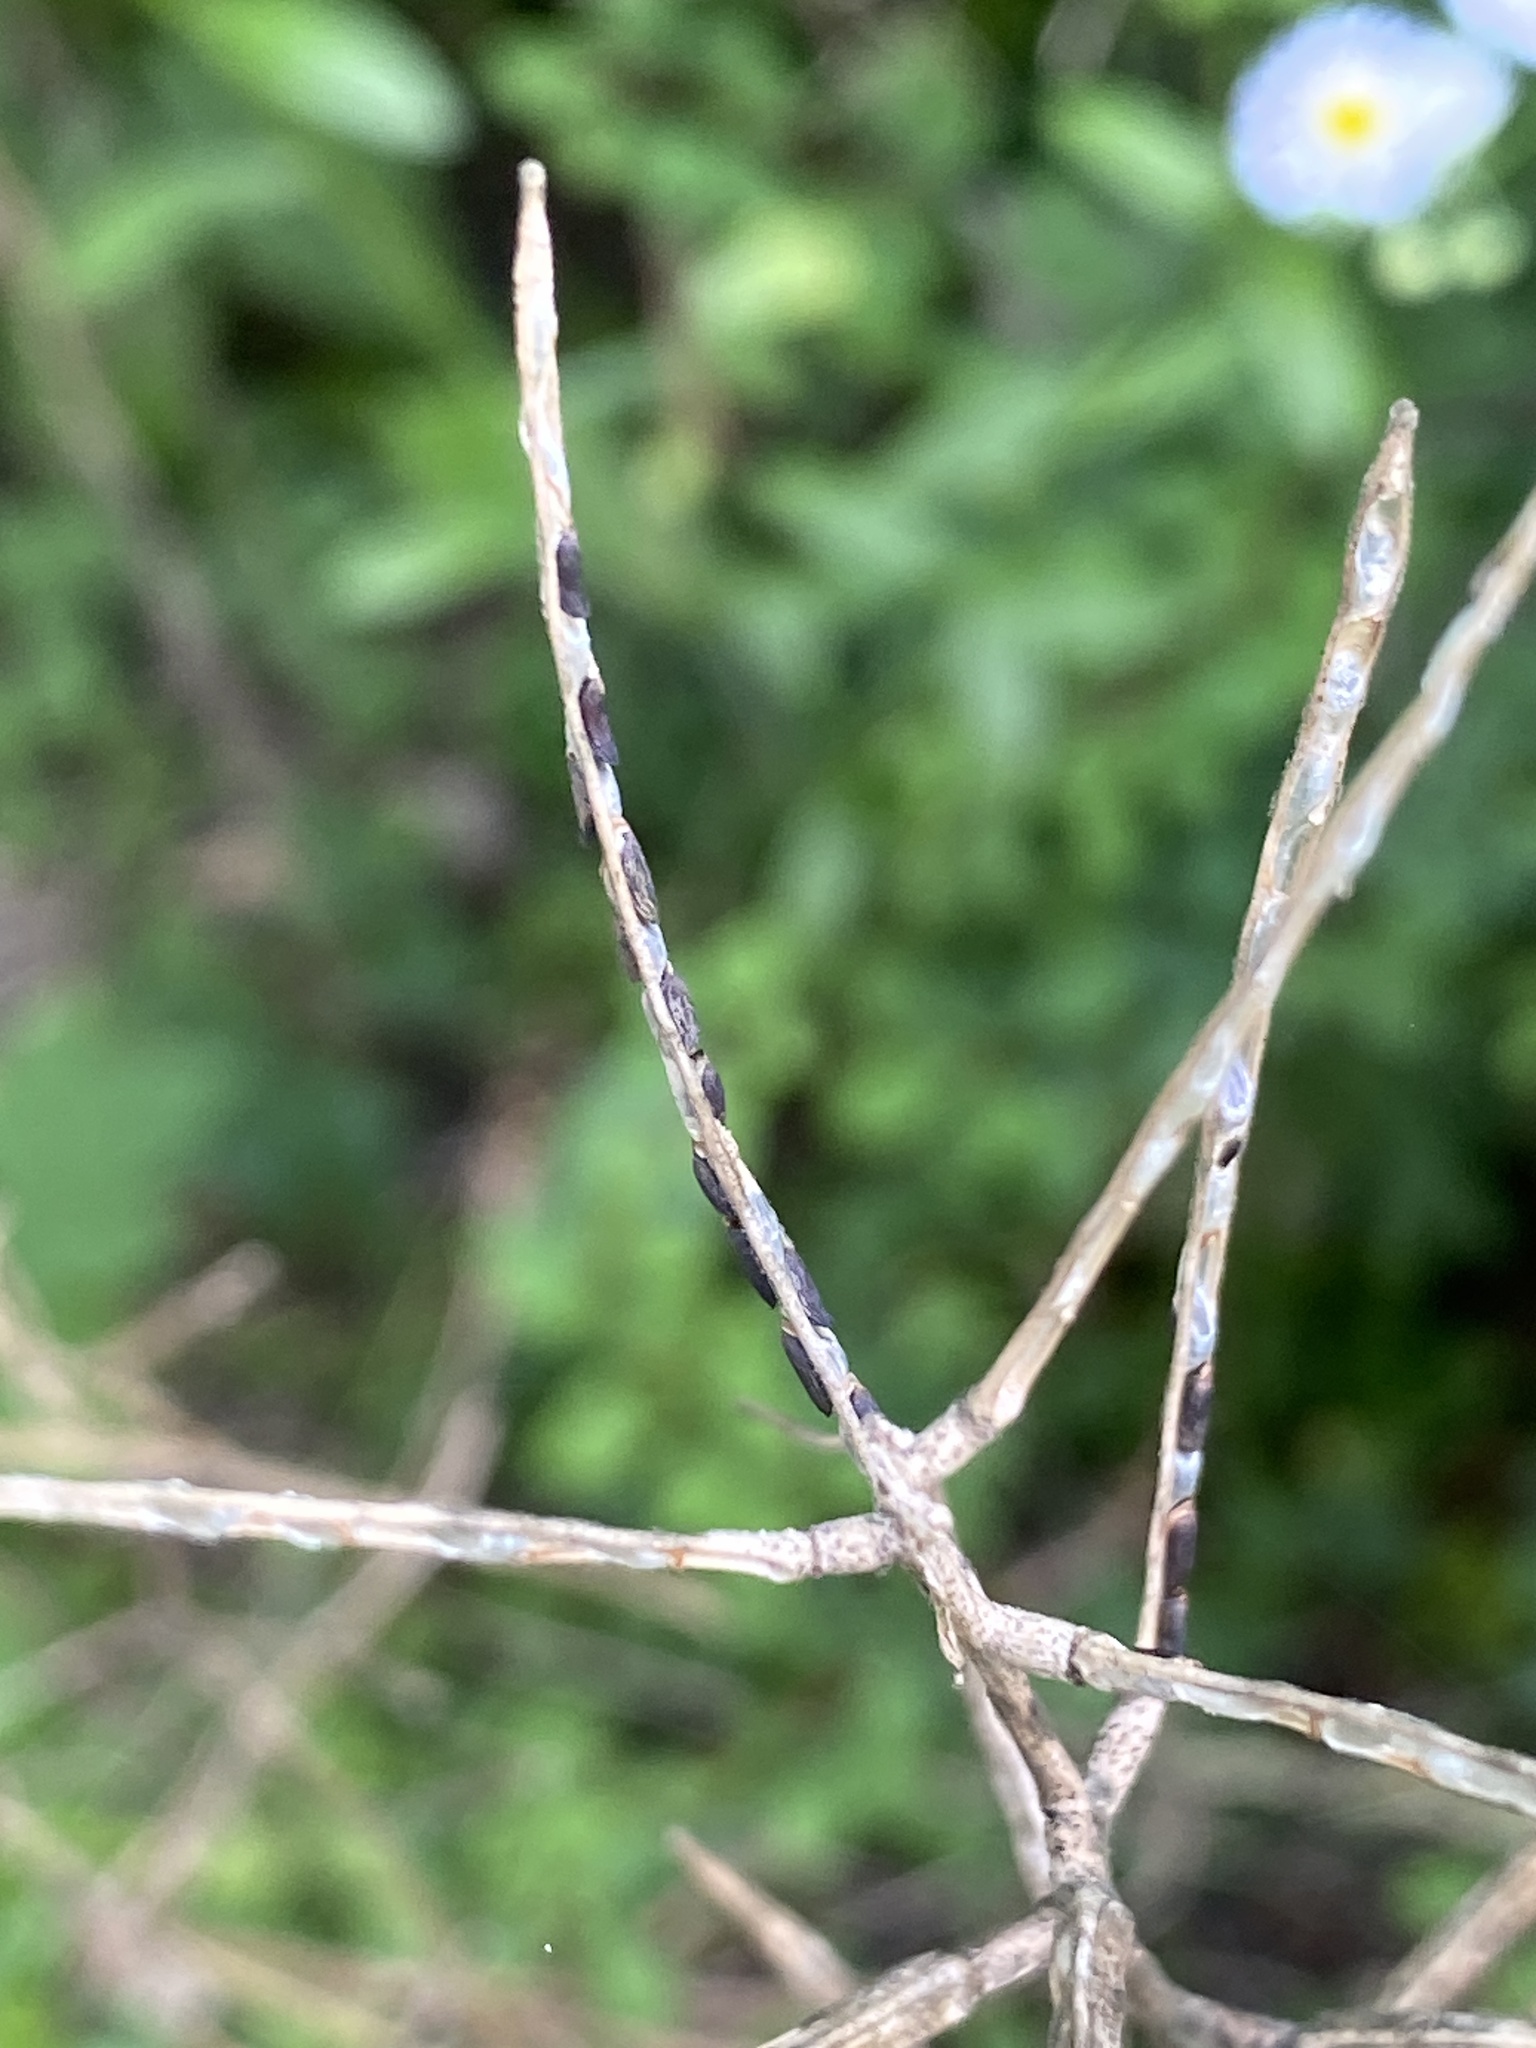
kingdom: Plantae
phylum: Tracheophyta
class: Magnoliopsida
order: Brassicales
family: Brassicaceae
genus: Alliaria
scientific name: Alliaria petiolata
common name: Garlic mustard
